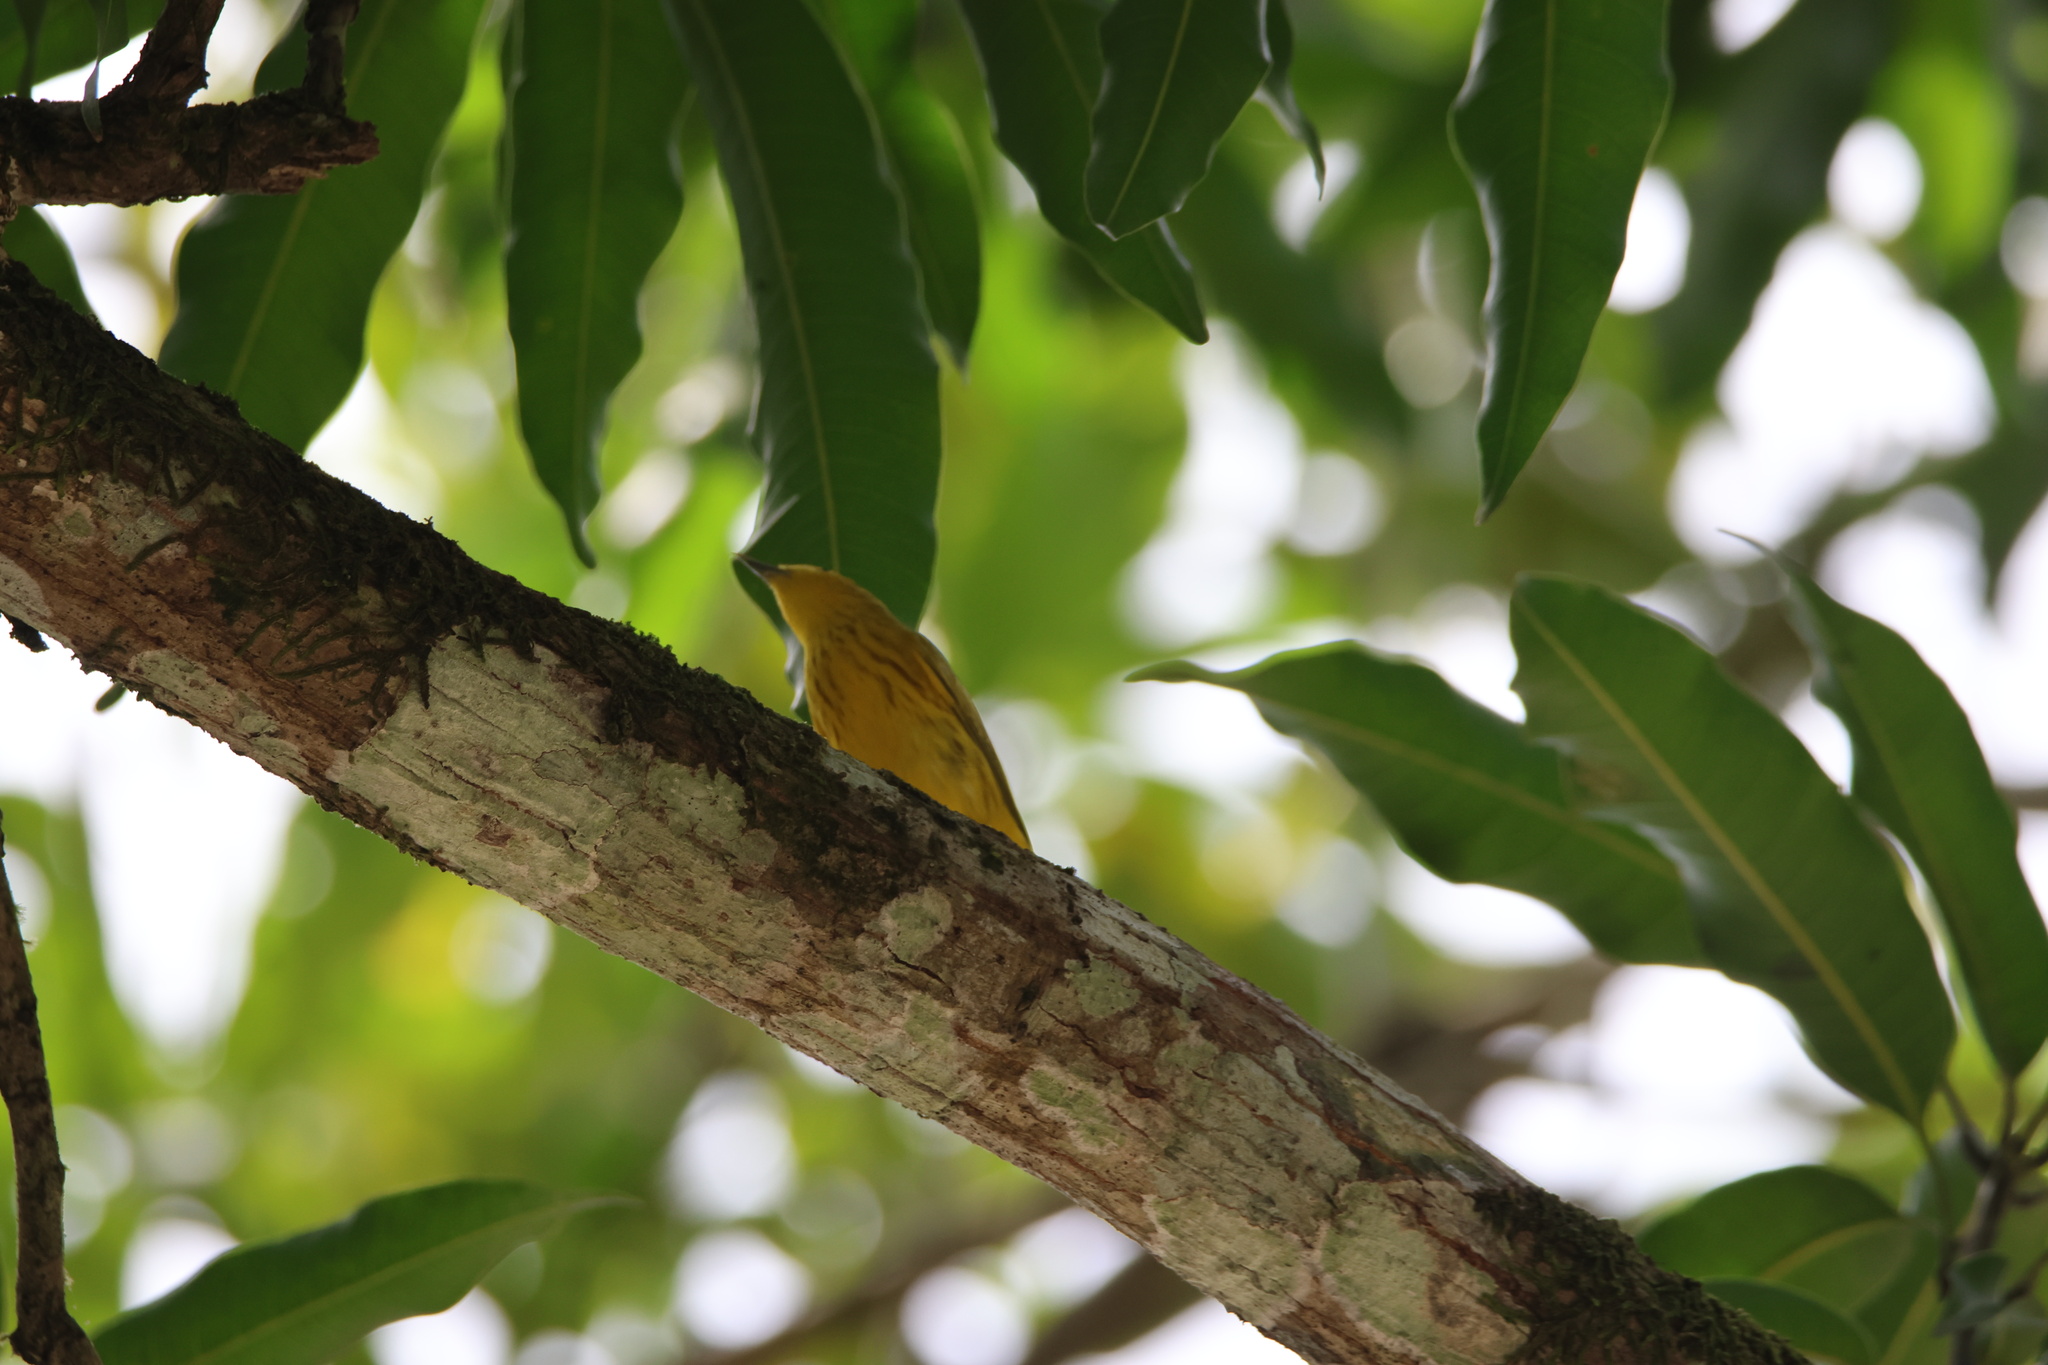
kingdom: Animalia
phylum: Chordata
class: Aves
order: Passeriformes
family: Parulidae
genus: Setophaga
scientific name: Setophaga petechia
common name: Yellow warbler
